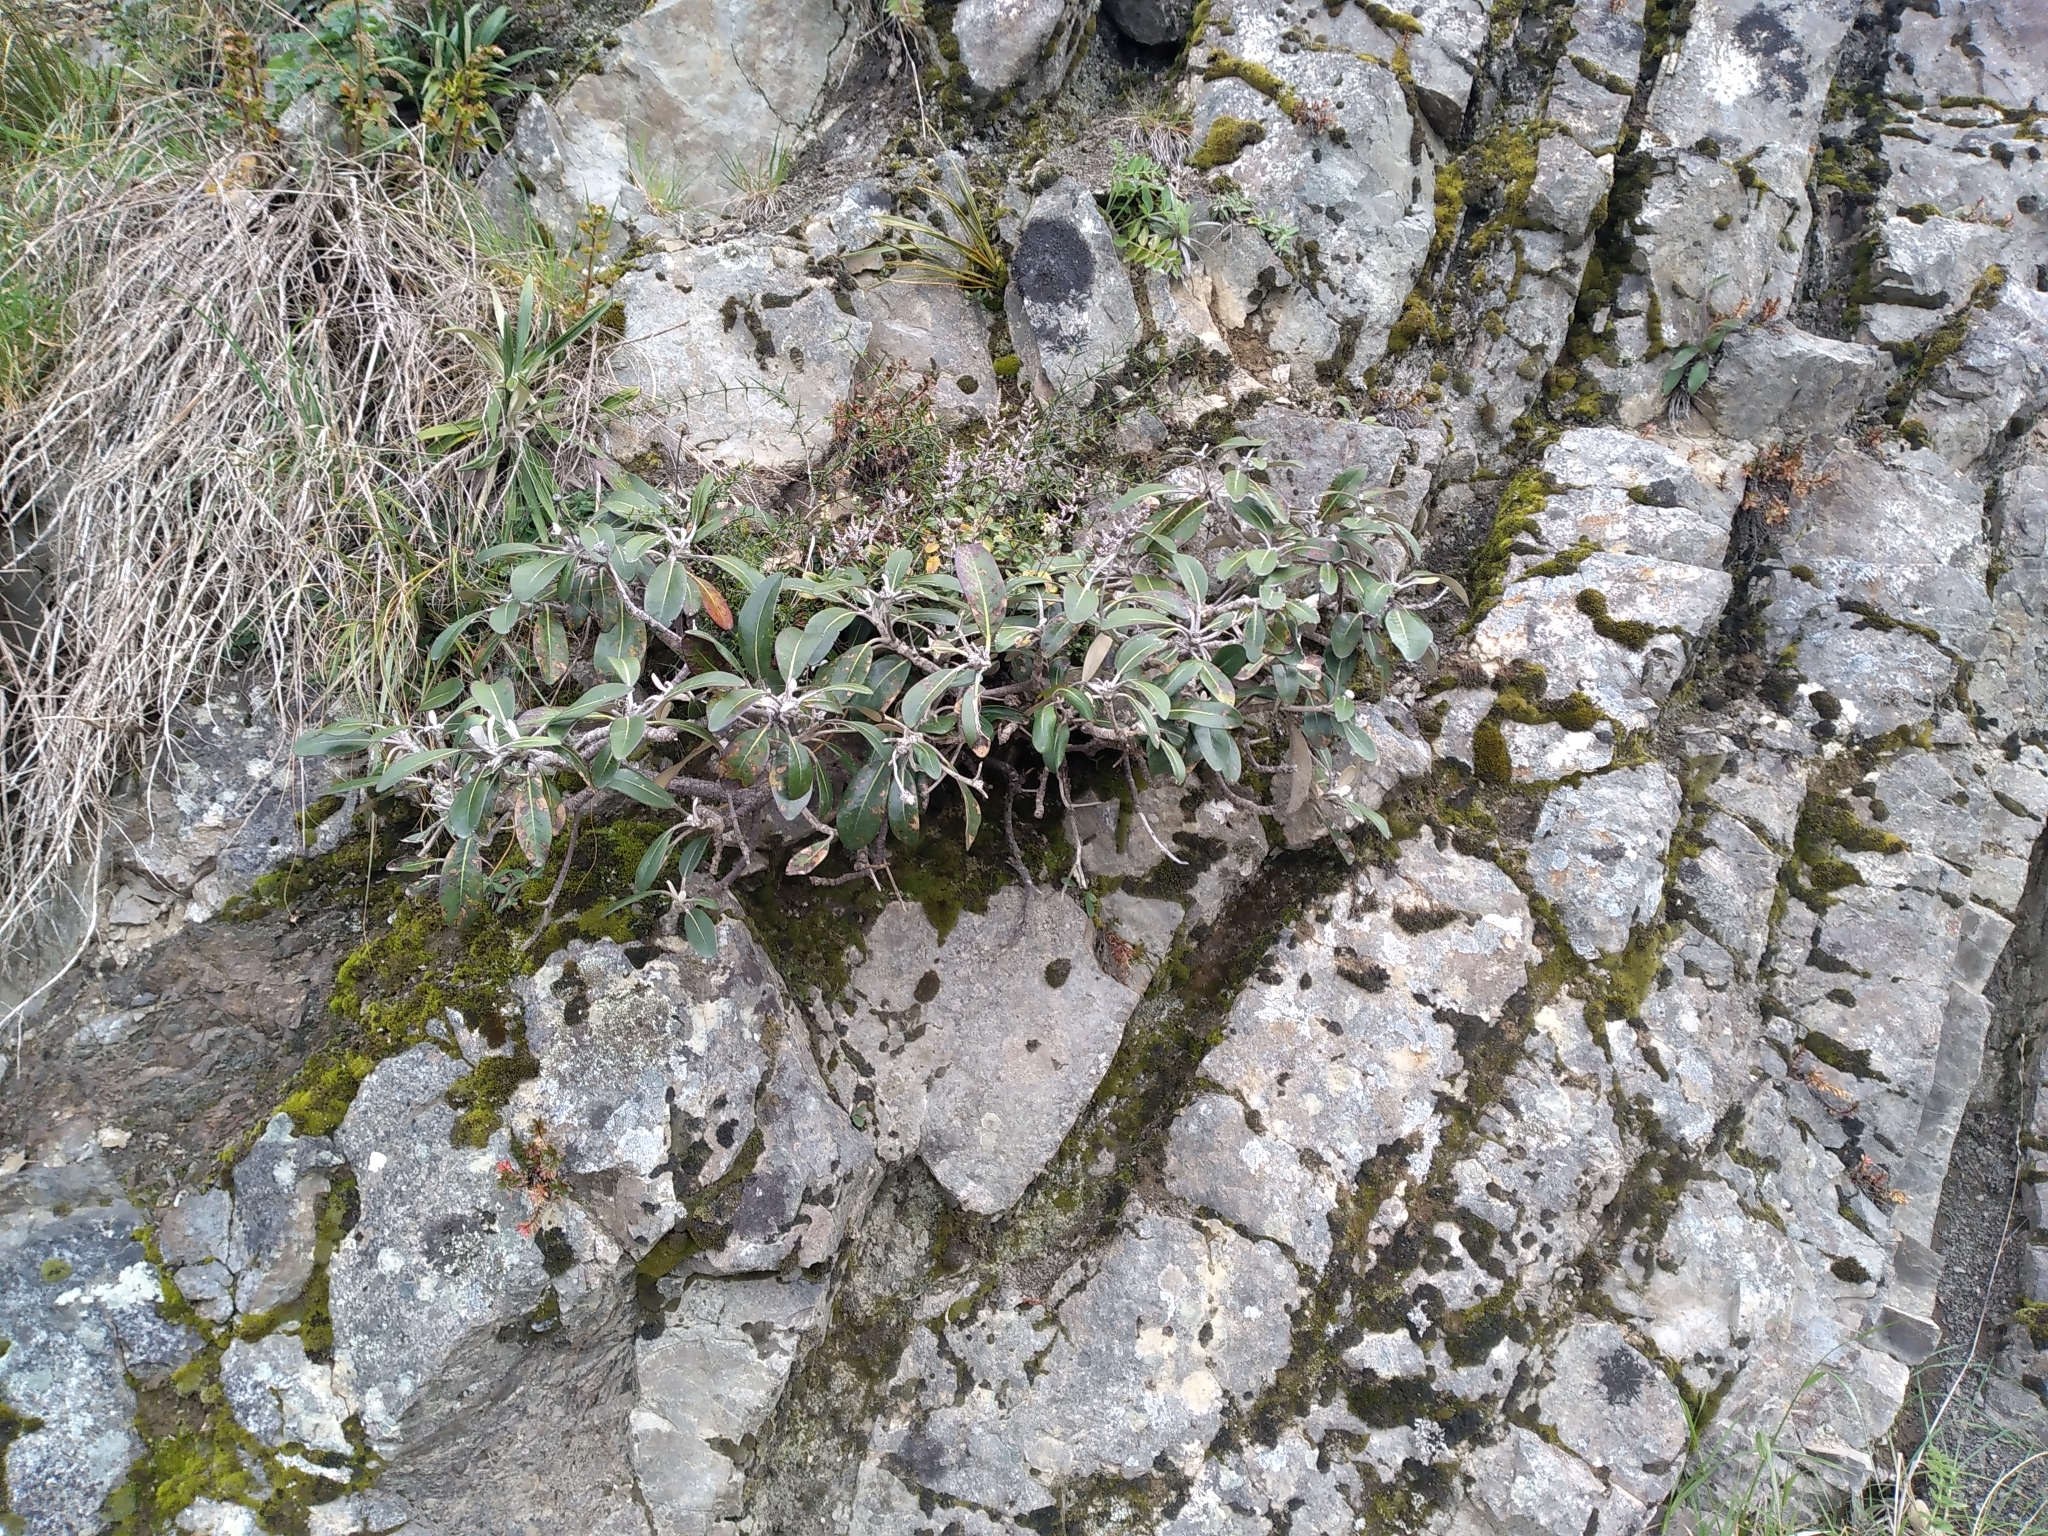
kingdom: Plantae
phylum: Tracheophyta
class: Magnoliopsida
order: Asterales
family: Asteraceae
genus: Pachystegia
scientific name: Pachystegia insignis
